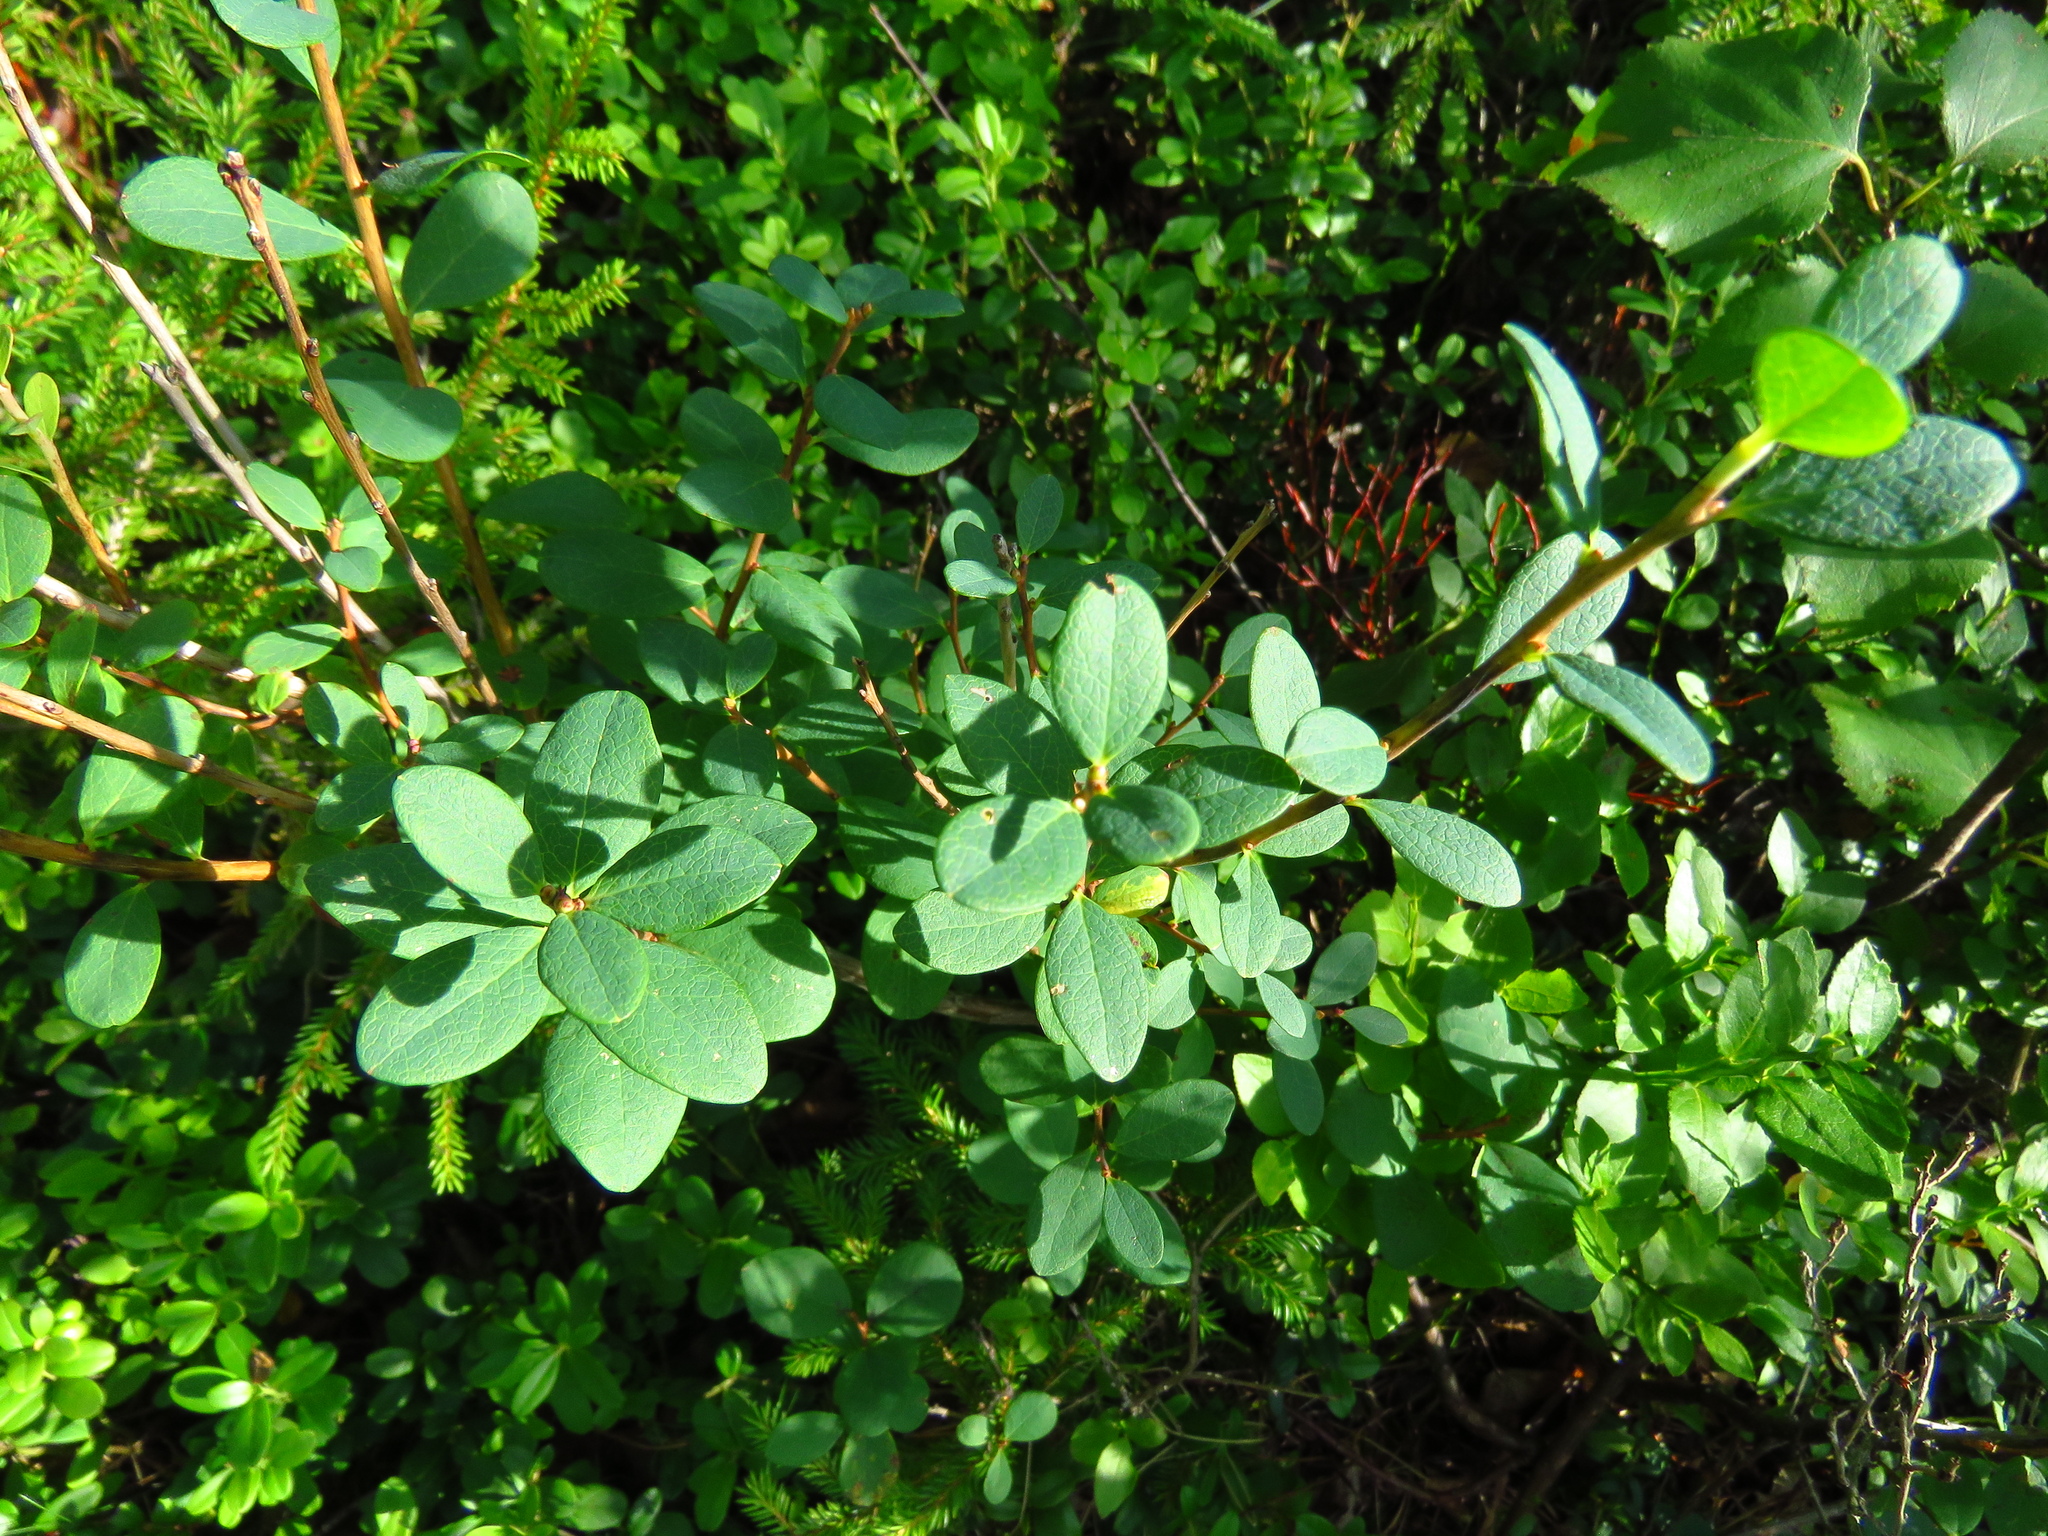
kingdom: Plantae
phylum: Tracheophyta
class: Magnoliopsida
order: Ericales
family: Ericaceae
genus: Vaccinium
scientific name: Vaccinium uliginosum
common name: Bog bilberry
